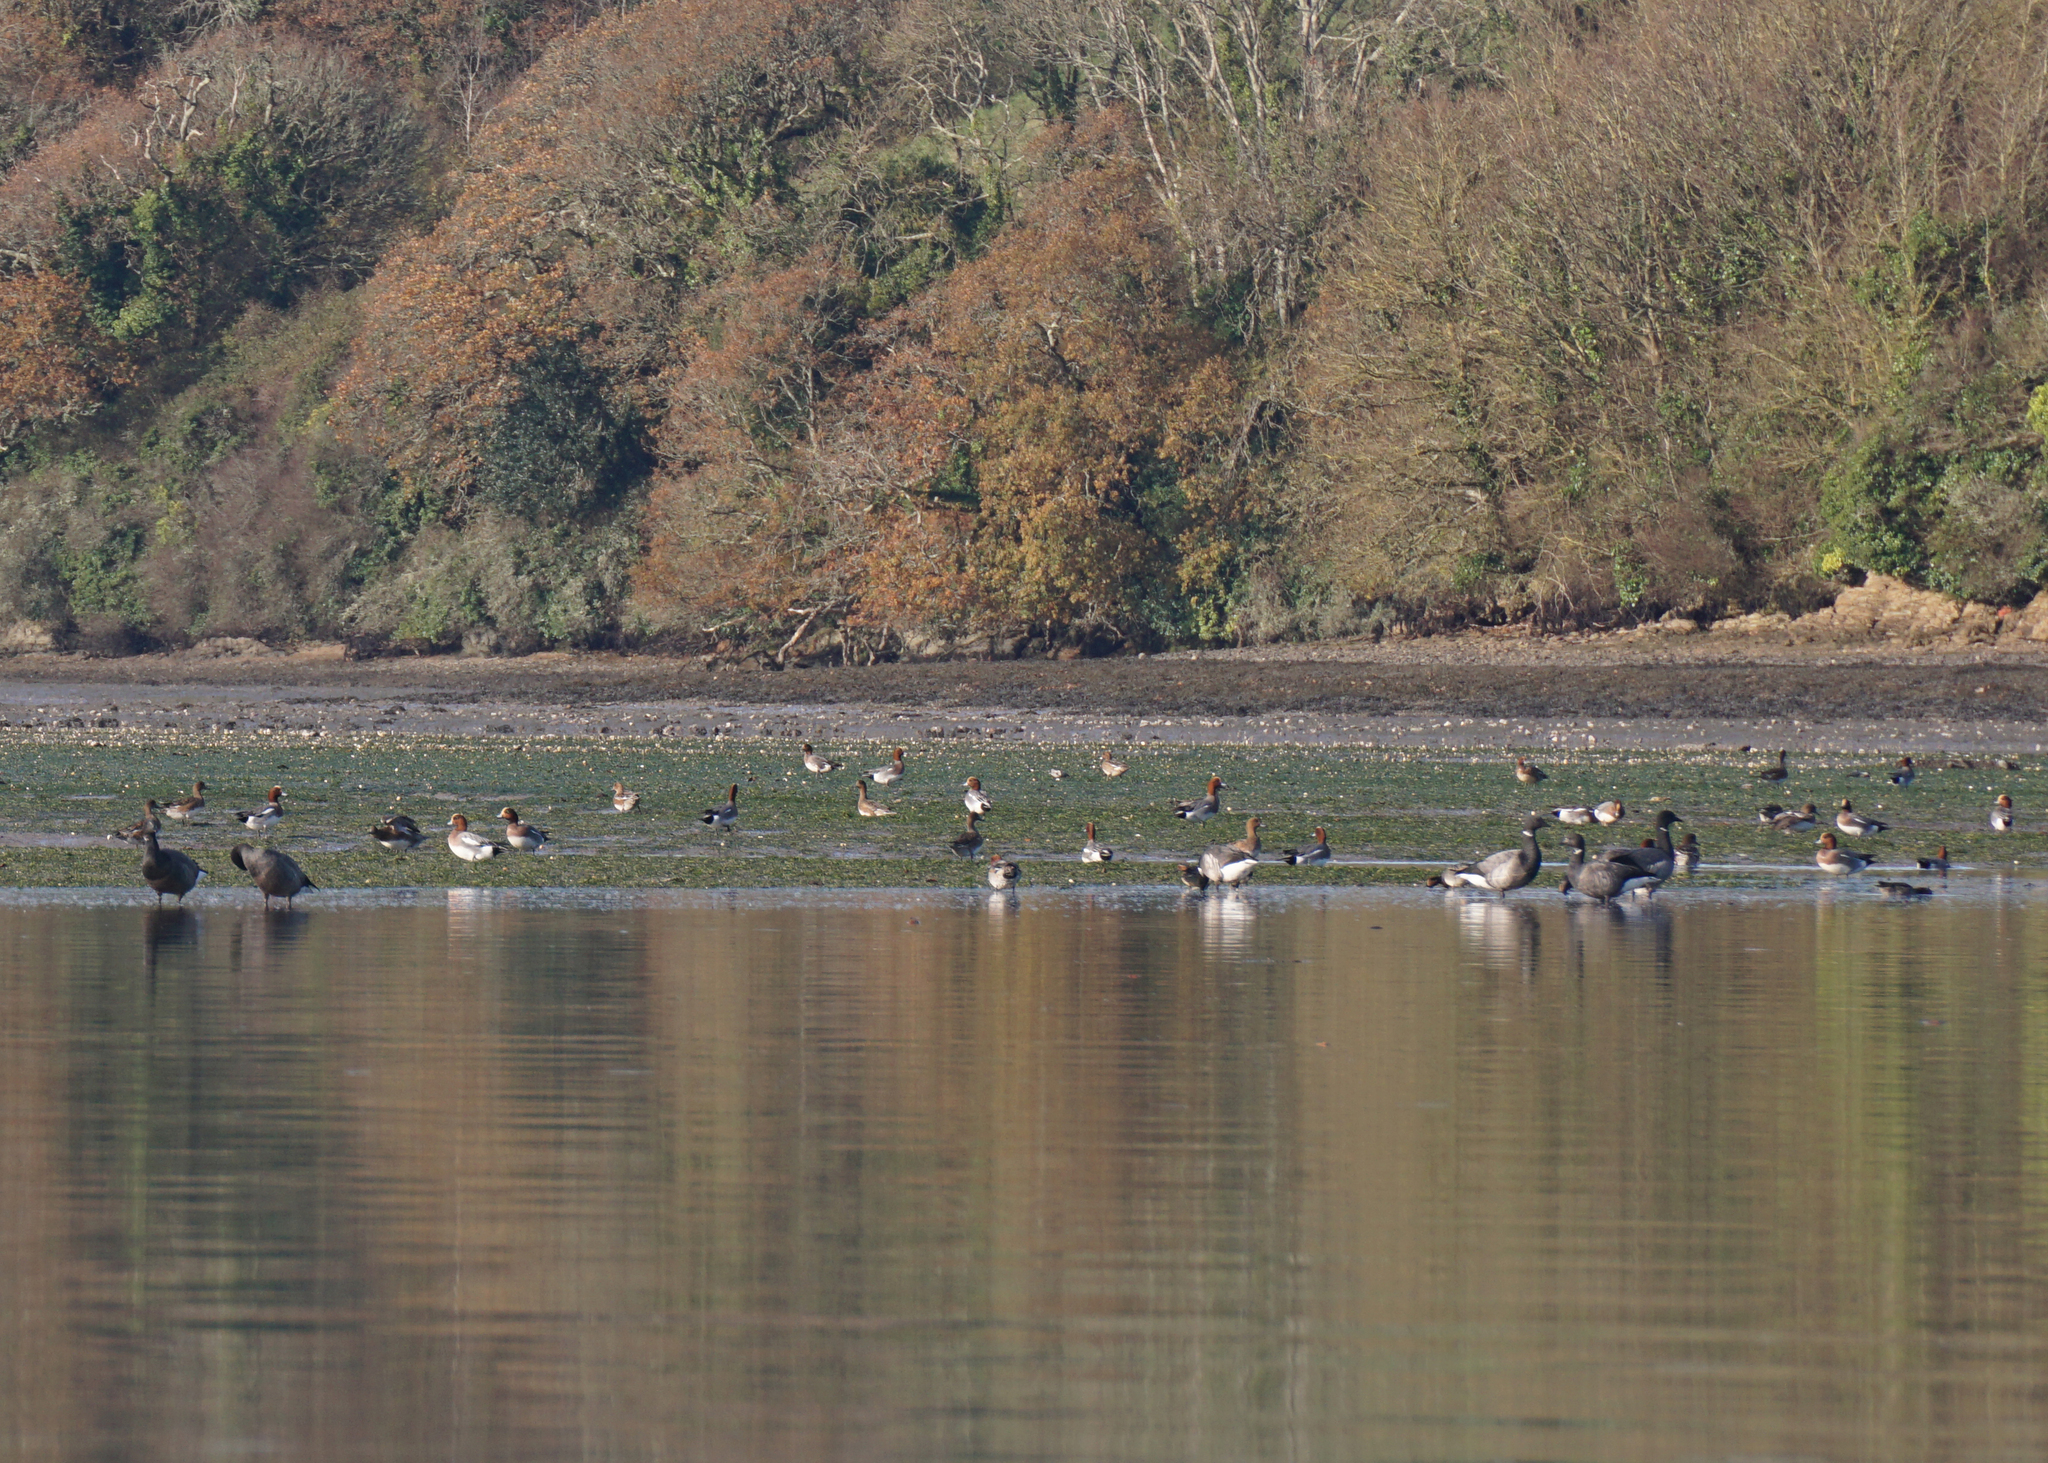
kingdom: Animalia
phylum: Chordata
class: Aves
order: Anseriformes
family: Anatidae
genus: Branta
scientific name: Branta bernicla
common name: Brant goose
